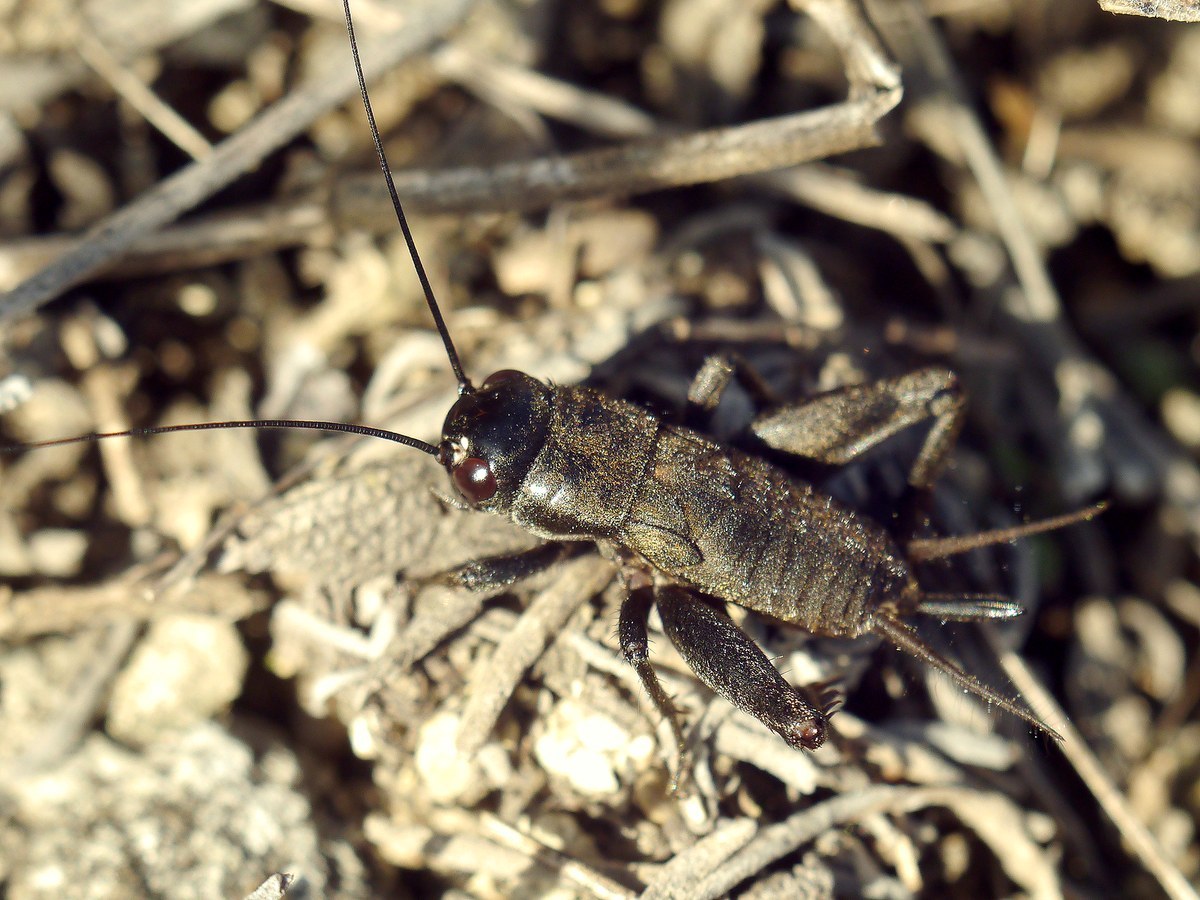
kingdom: Animalia
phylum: Arthropoda
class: Insecta
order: Orthoptera
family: Gryllidae
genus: Melanogryllus
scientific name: Melanogryllus desertus
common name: Desert cricket
